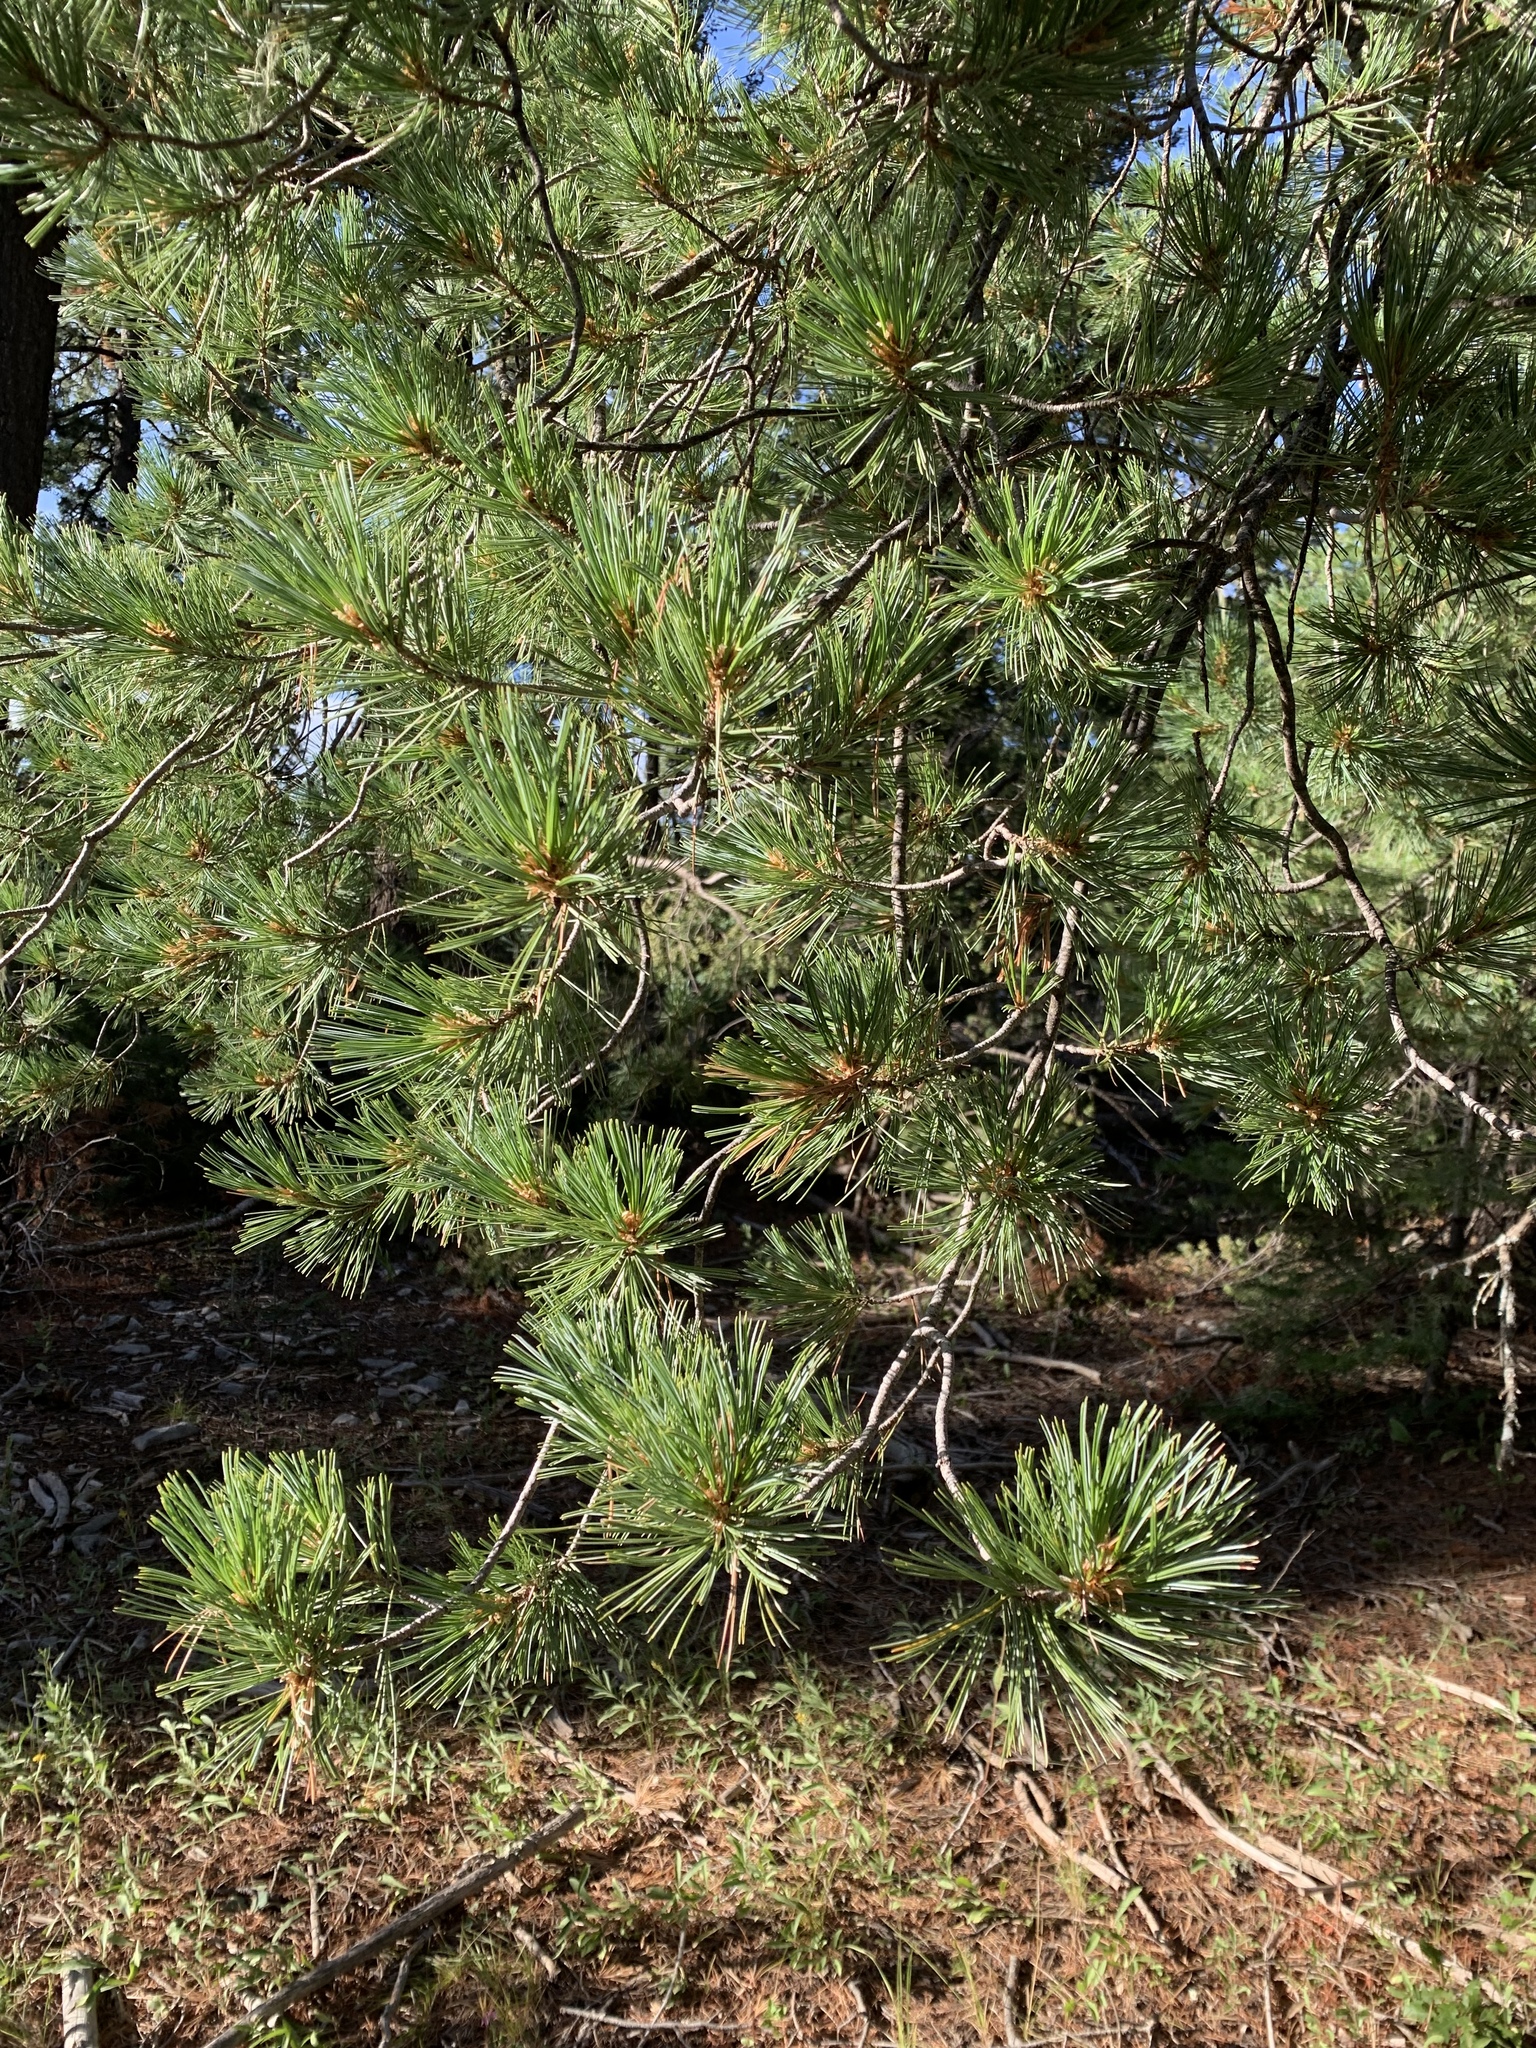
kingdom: Plantae
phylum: Tracheophyta
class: Pinopsida
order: Pinales
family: Pinaceae
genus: Pinus
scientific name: Pinus strobiformis
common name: Southwestern white pine
